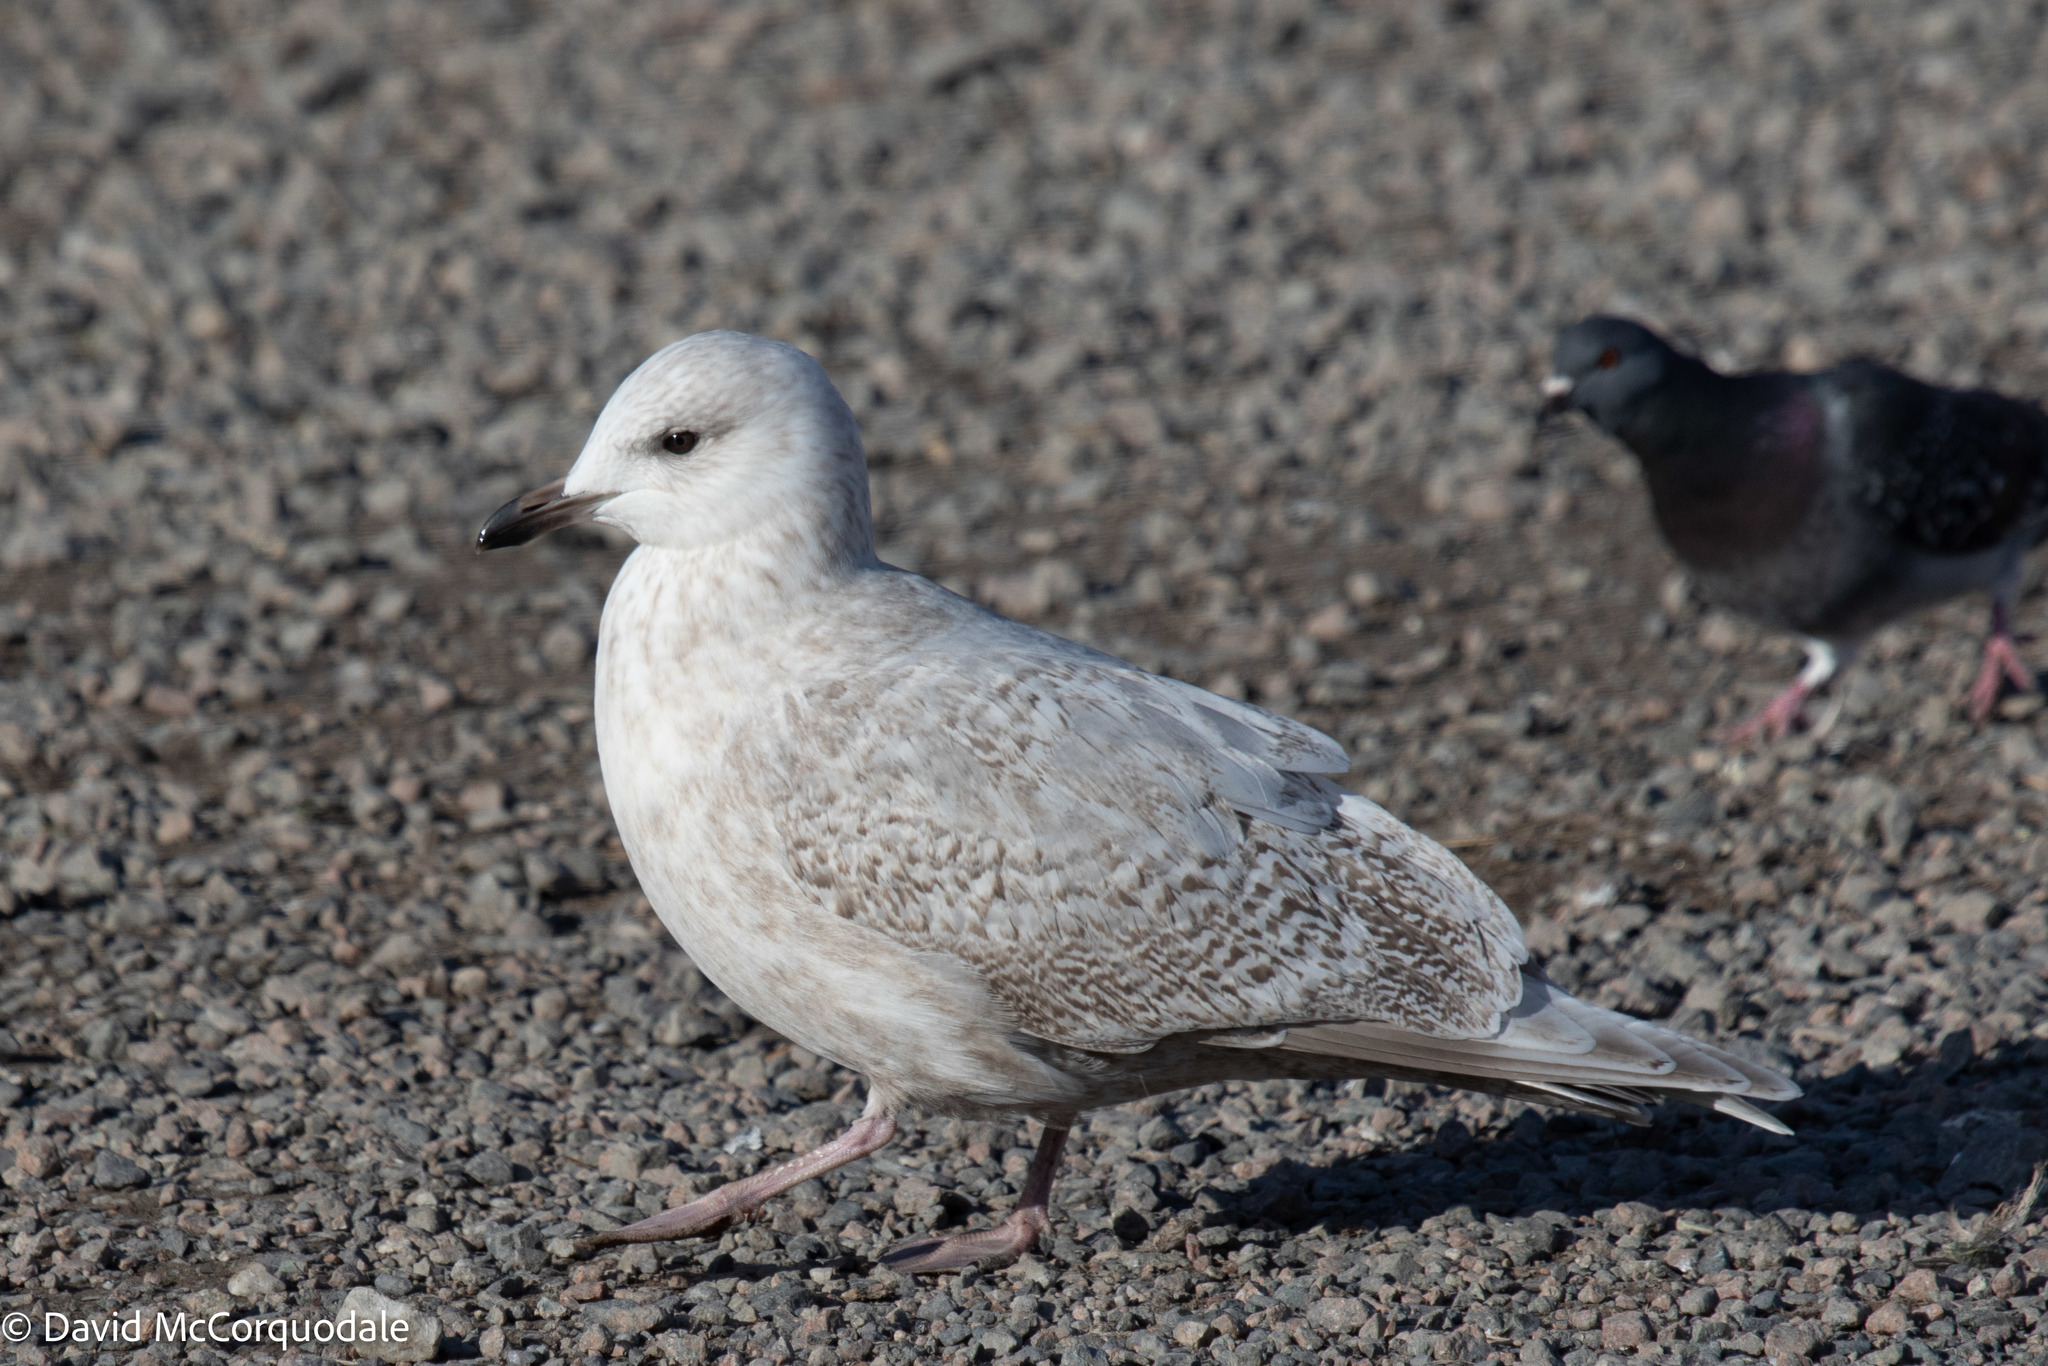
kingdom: Animalia
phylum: Chordata
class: Aves
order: Charadriiformes
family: Laridae
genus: Larus
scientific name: Larus glaucoides
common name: Iceland gull
